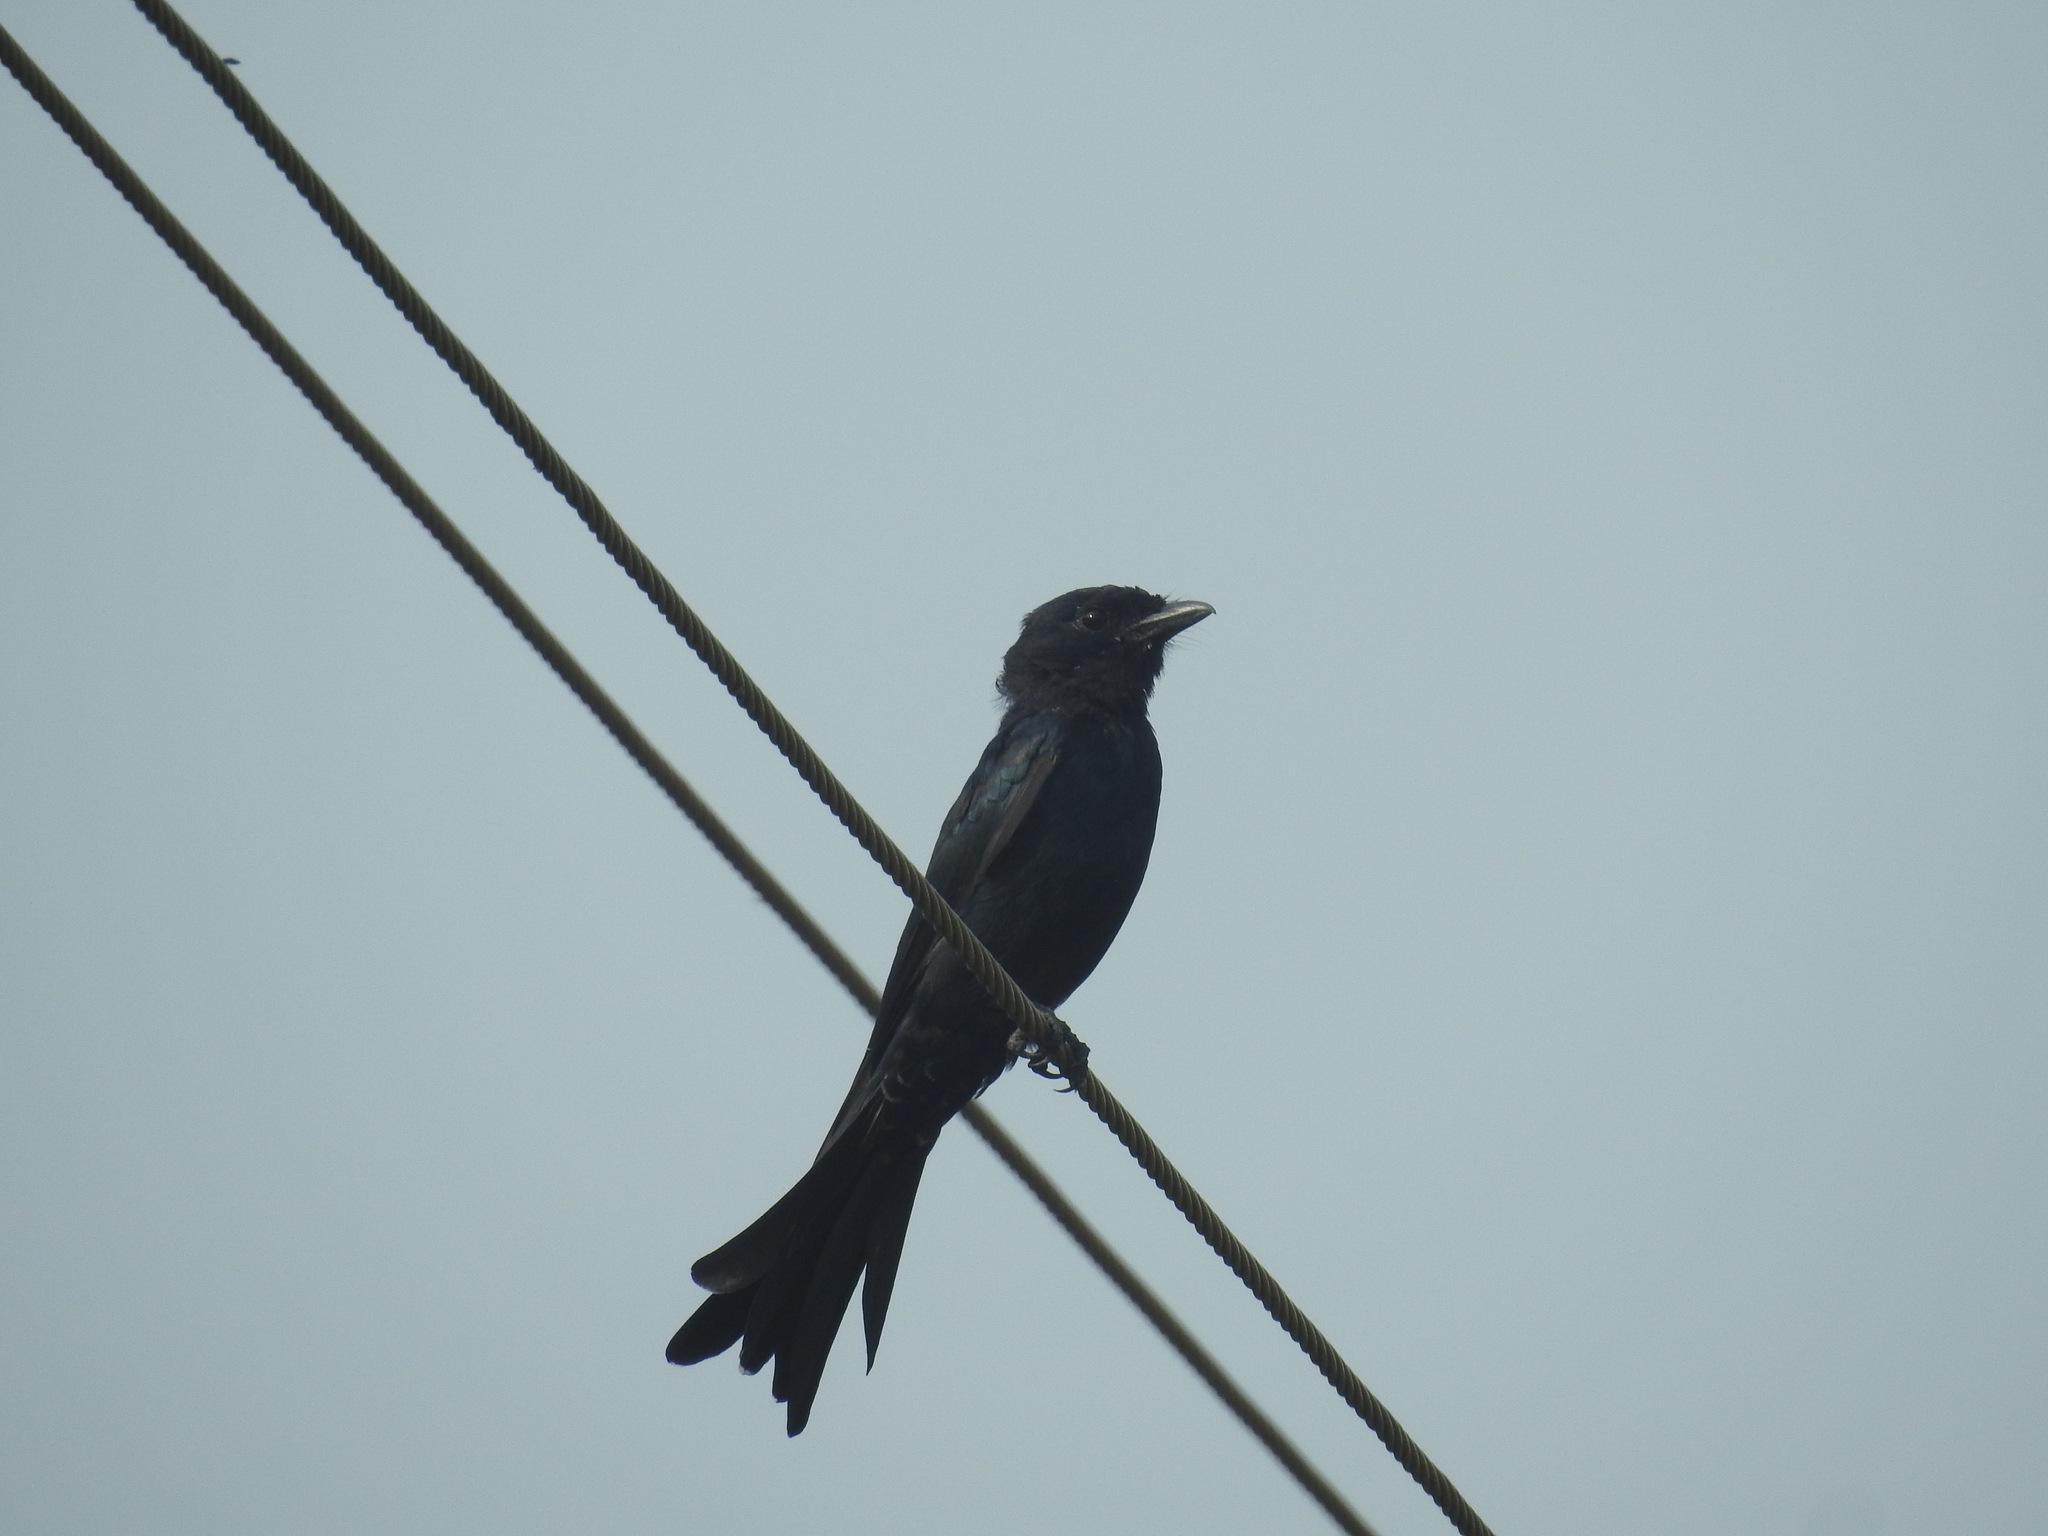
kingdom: Animalia
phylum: Chordata
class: Aves
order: Passeriformes
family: Dicruridae
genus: Dicrurus
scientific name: Dicrurus macrocercus
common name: Black drongo
